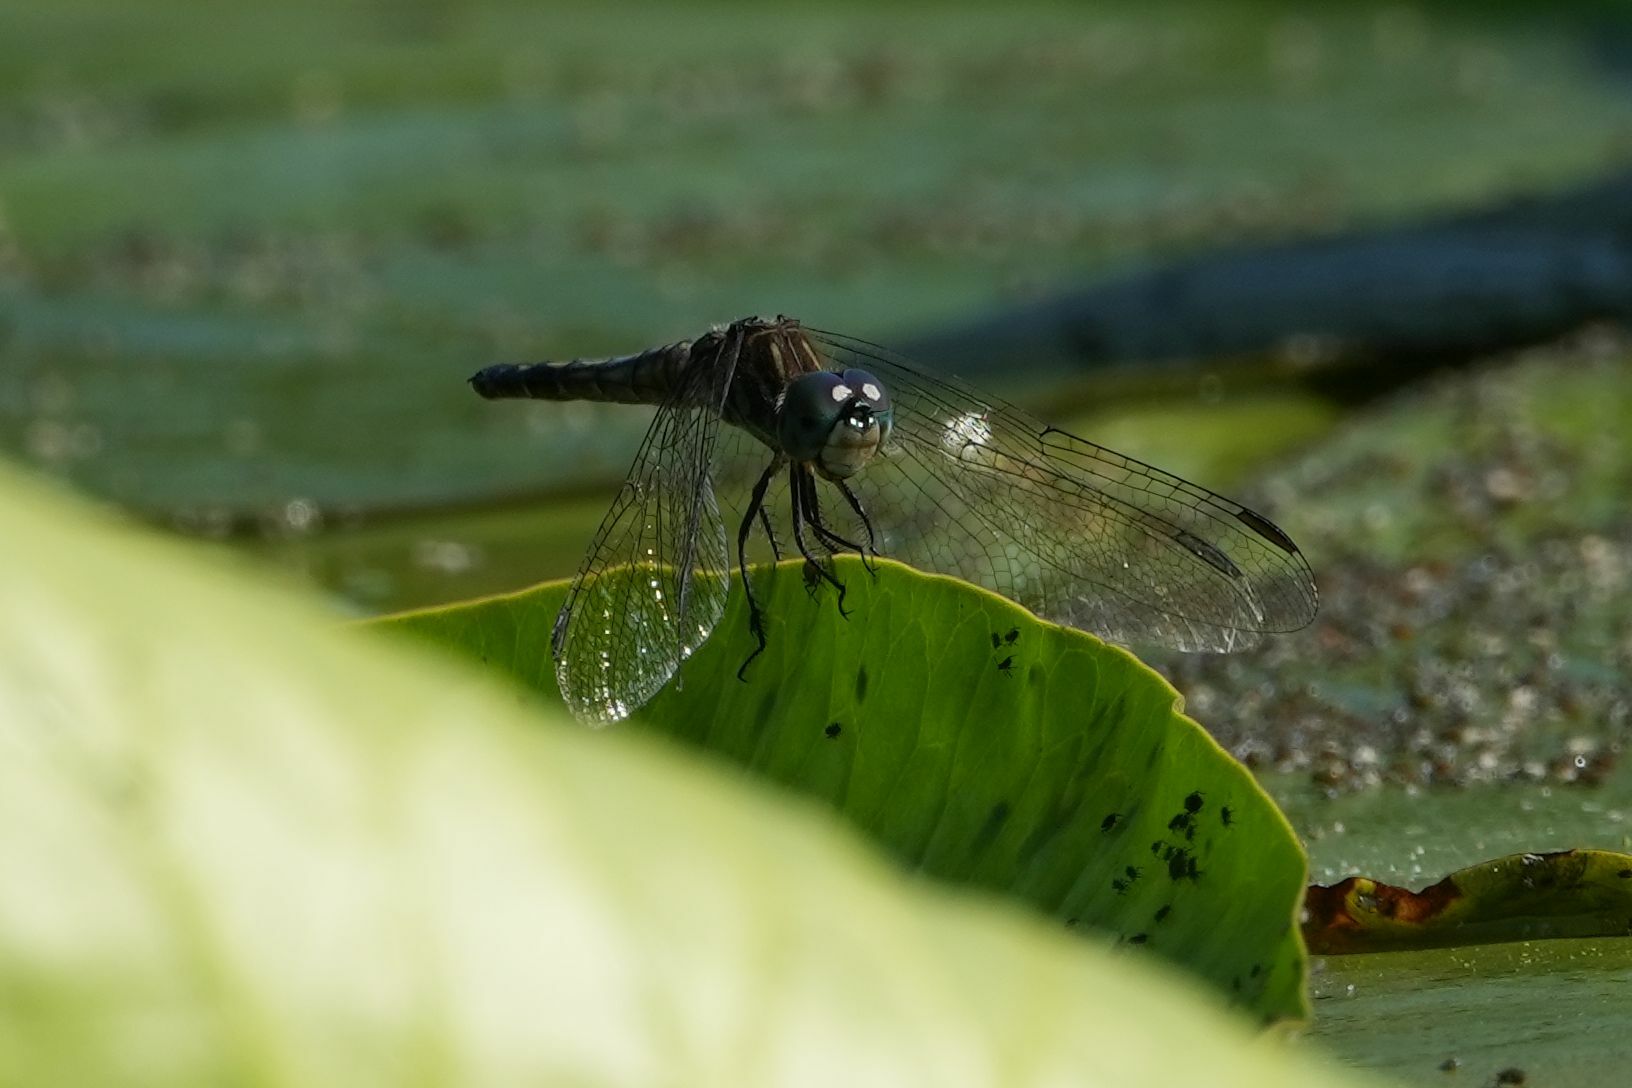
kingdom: Animalia
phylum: Arthropoda
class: Insecta
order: Odonata
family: Libellulidae
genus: Pachydiplax
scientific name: Pachydiplax longipennis
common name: Blue dasher
